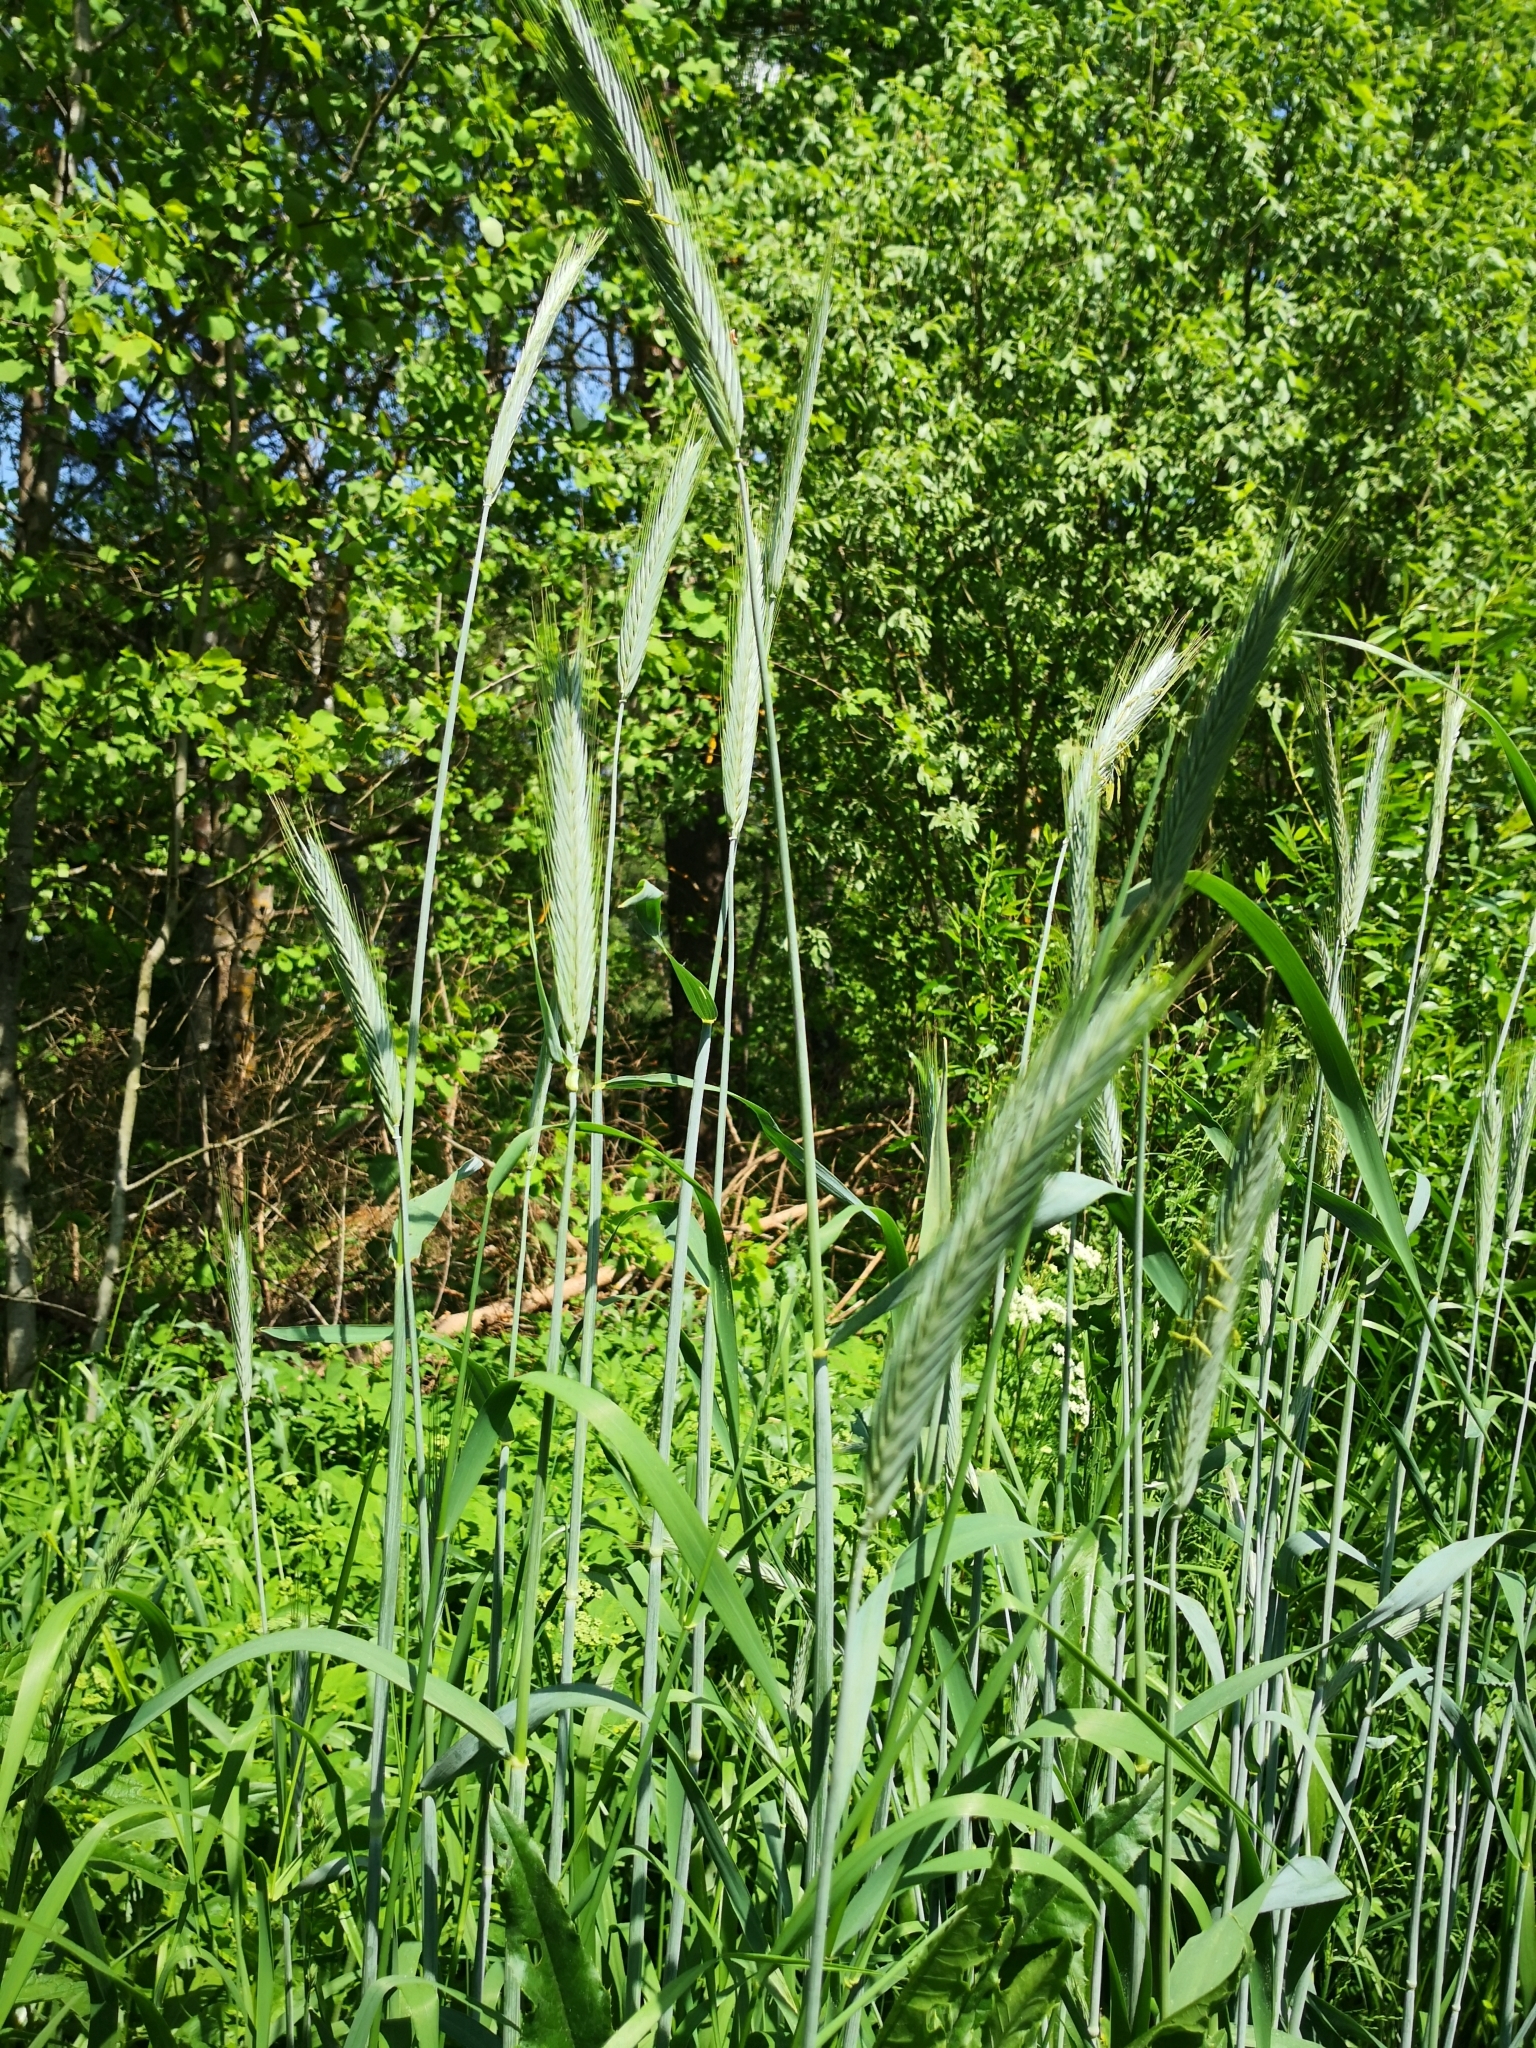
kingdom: Plantae
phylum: Tracheophyta
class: Liliopsida
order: Poales
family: Poaceae
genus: Secale
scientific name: Secale cereale
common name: Rye
